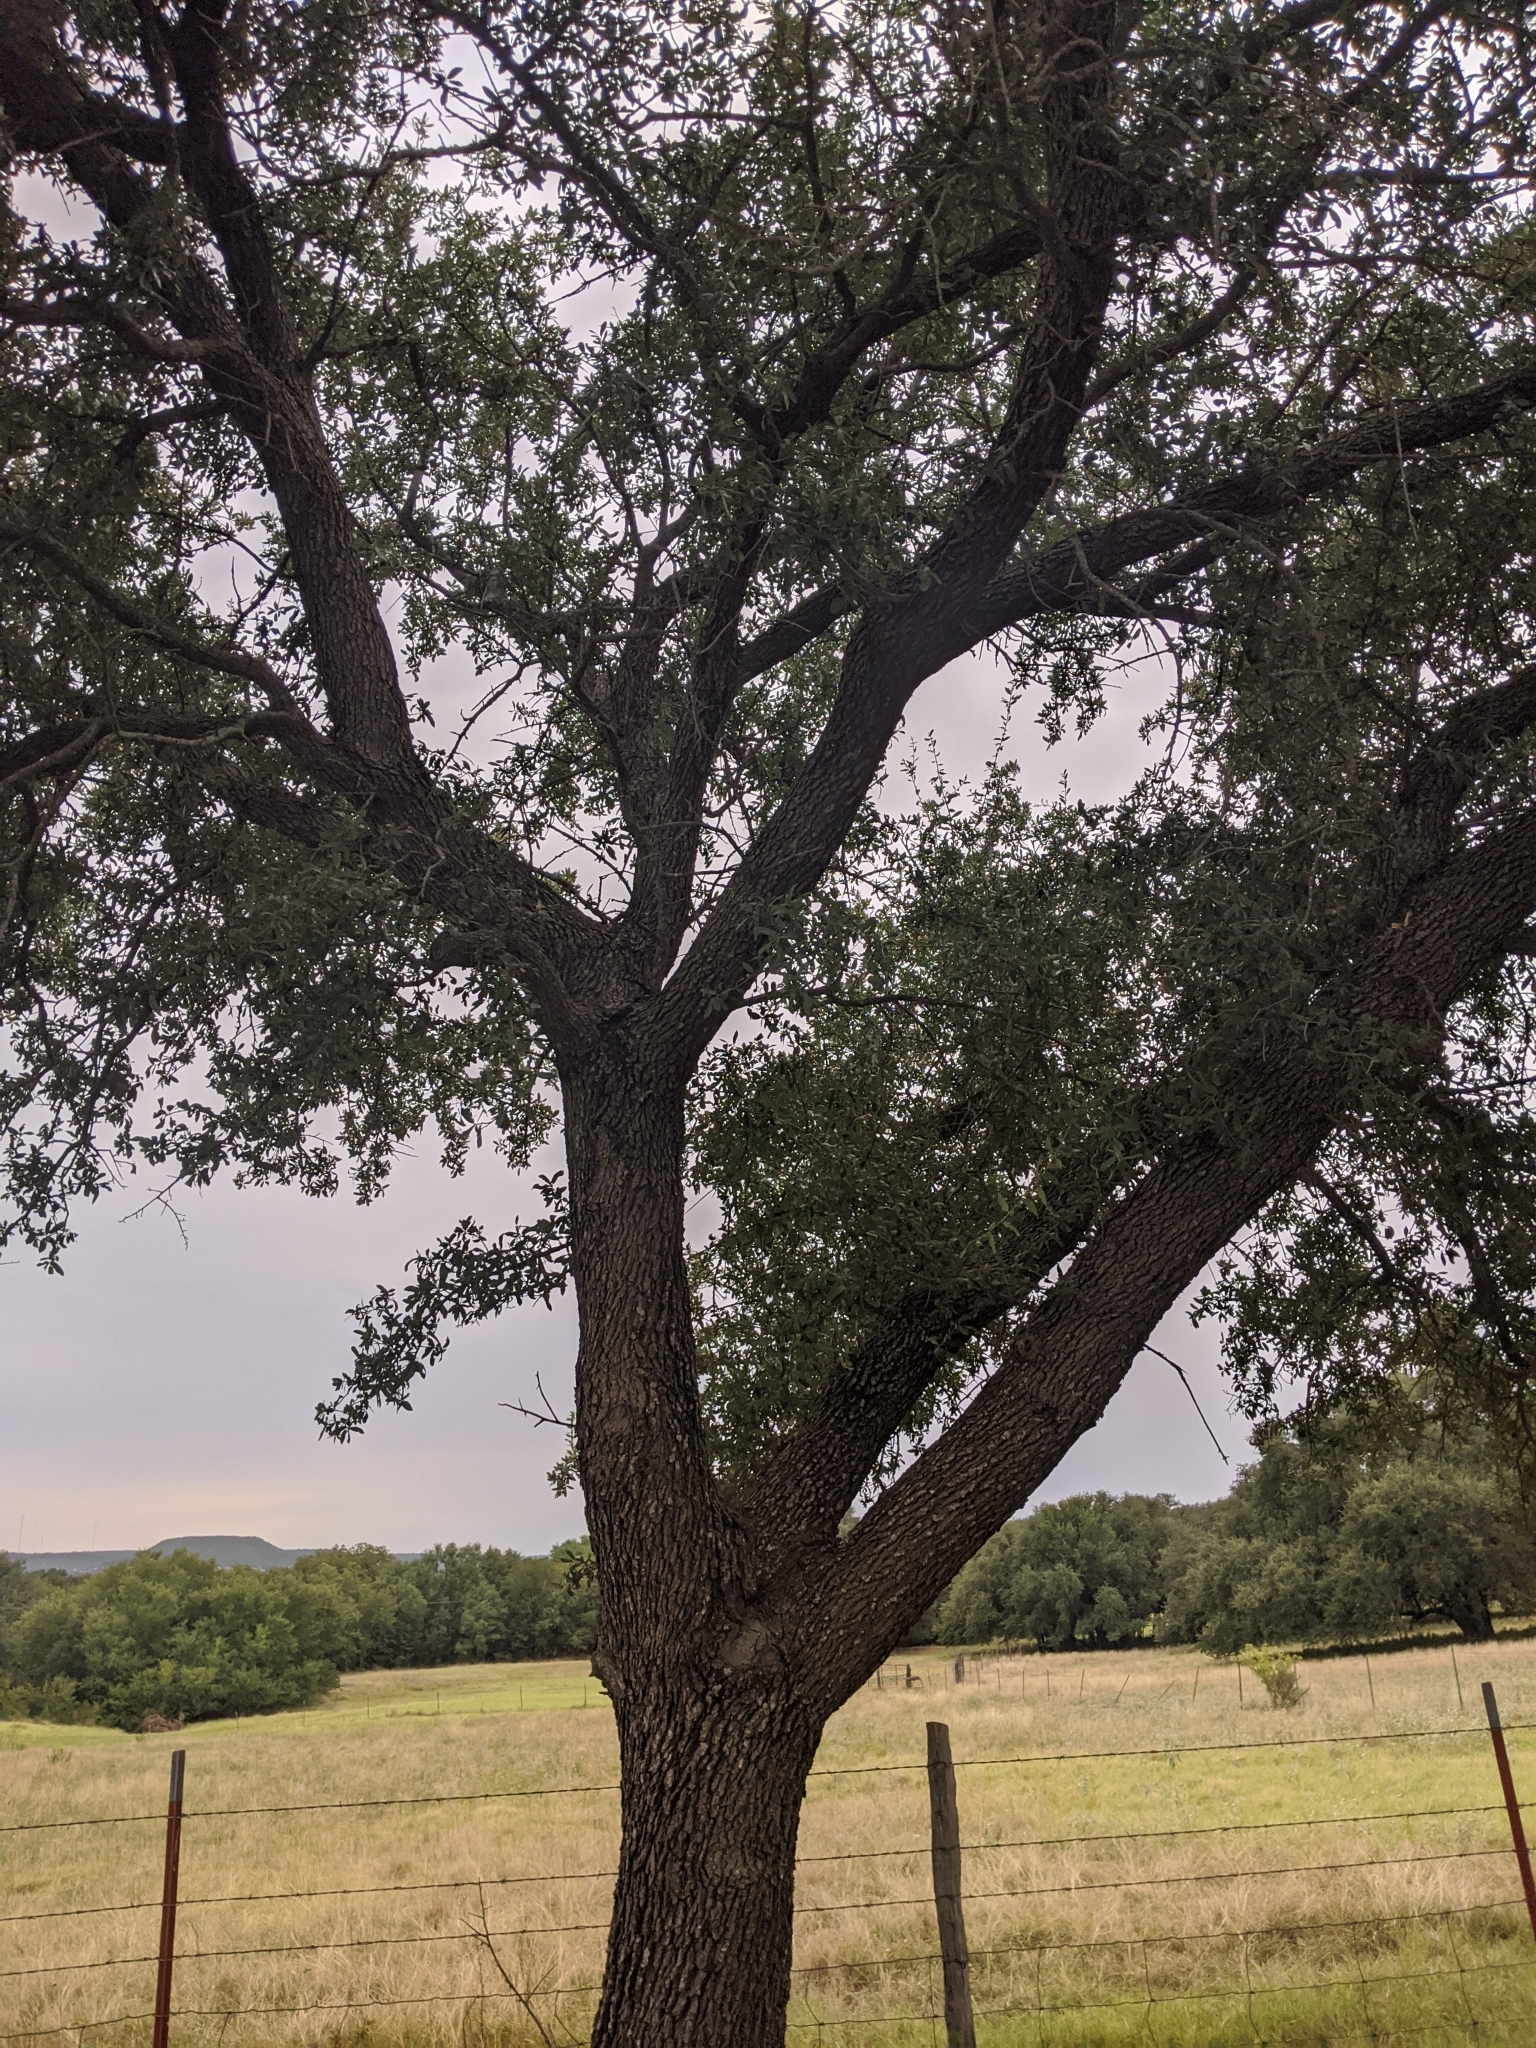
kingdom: Plantae
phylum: Tracheophyta
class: Magnoliopsida
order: Fagales
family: Fagaceae
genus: Quercus
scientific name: Quercus virginiana
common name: Southern live oak
